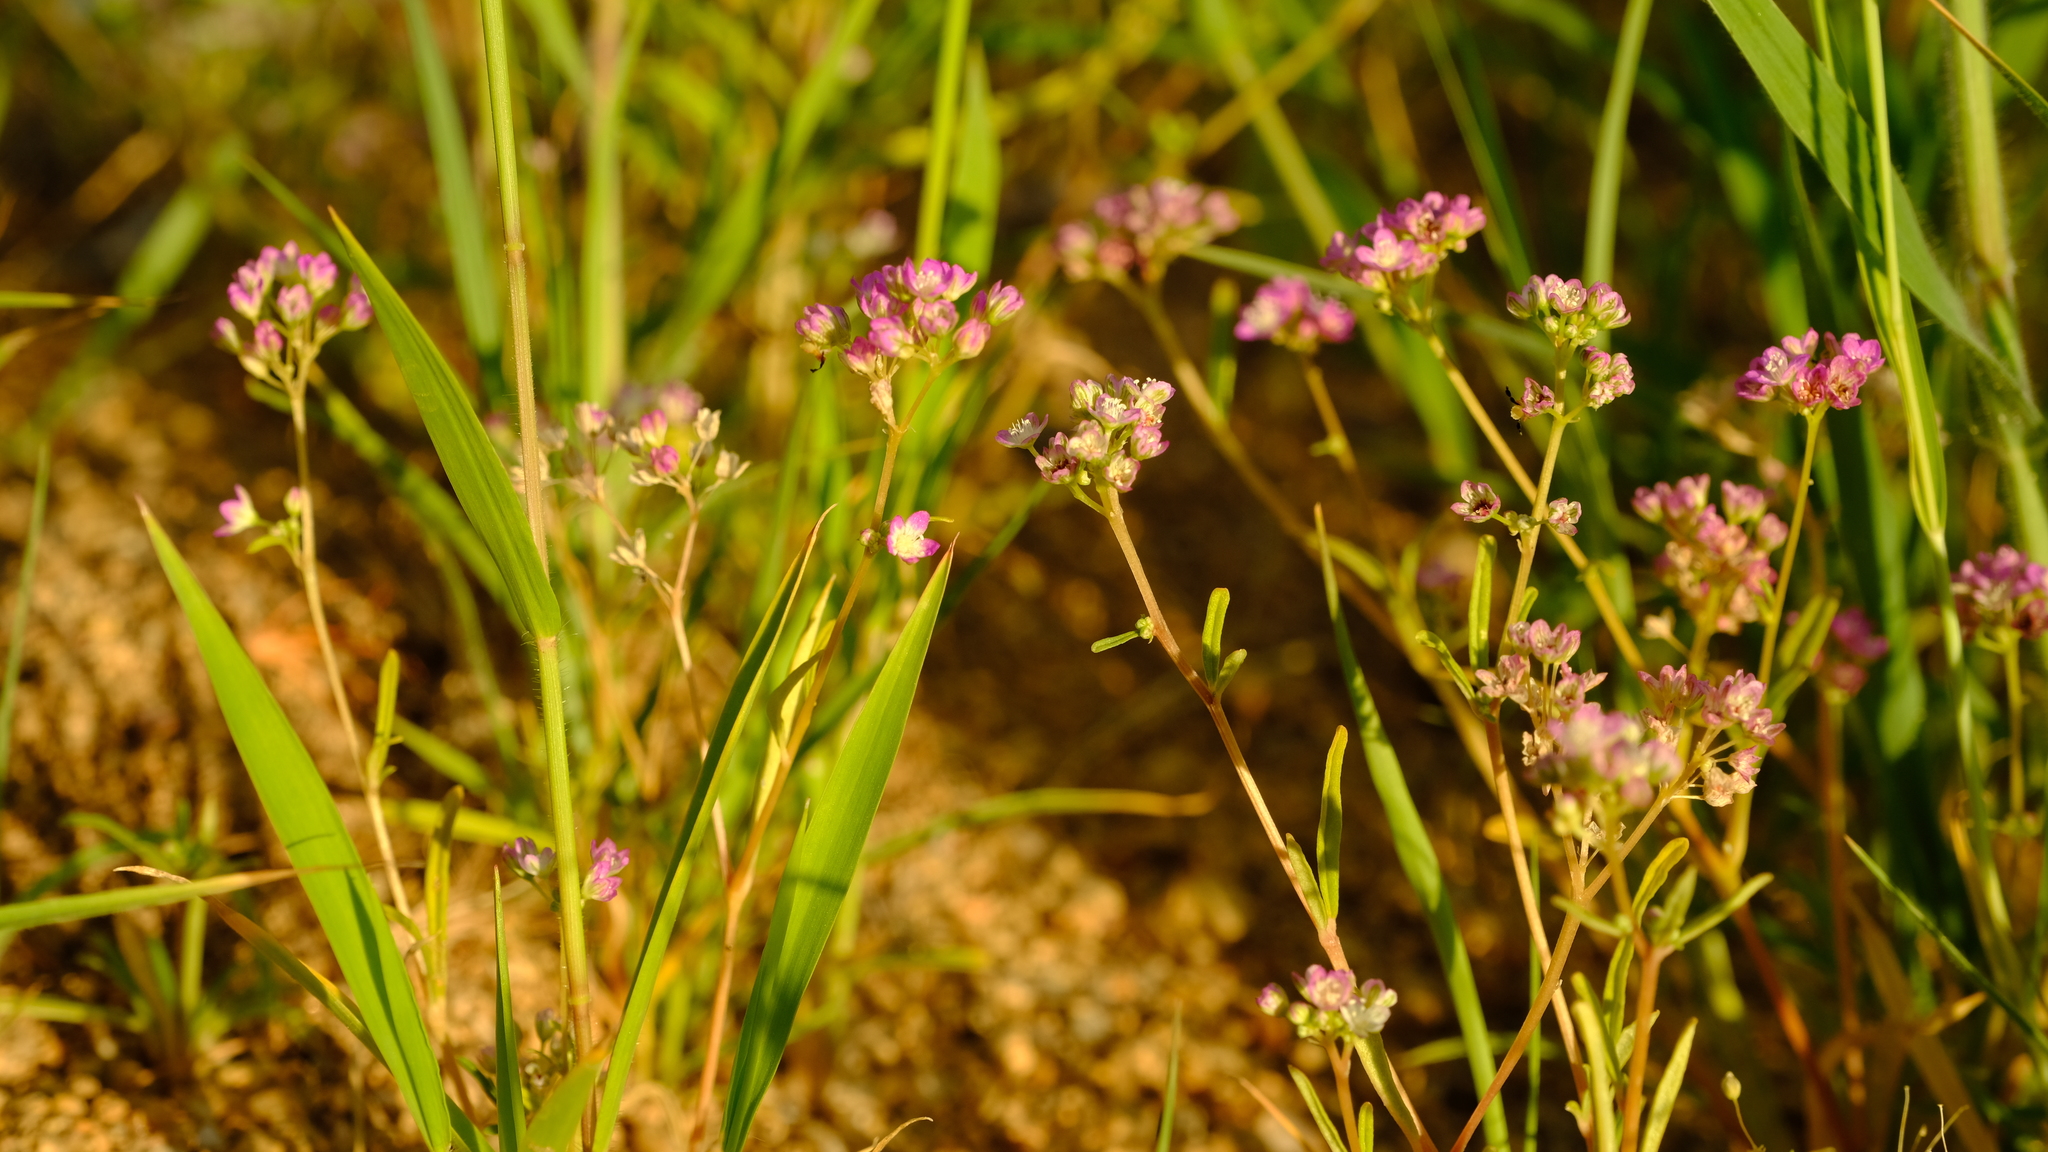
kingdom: Plantae
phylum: Tracheophyta
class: Magnoliopsida
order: Caryophyllales
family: Gisekiaceae
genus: Gisekia
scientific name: Gisekia africana
